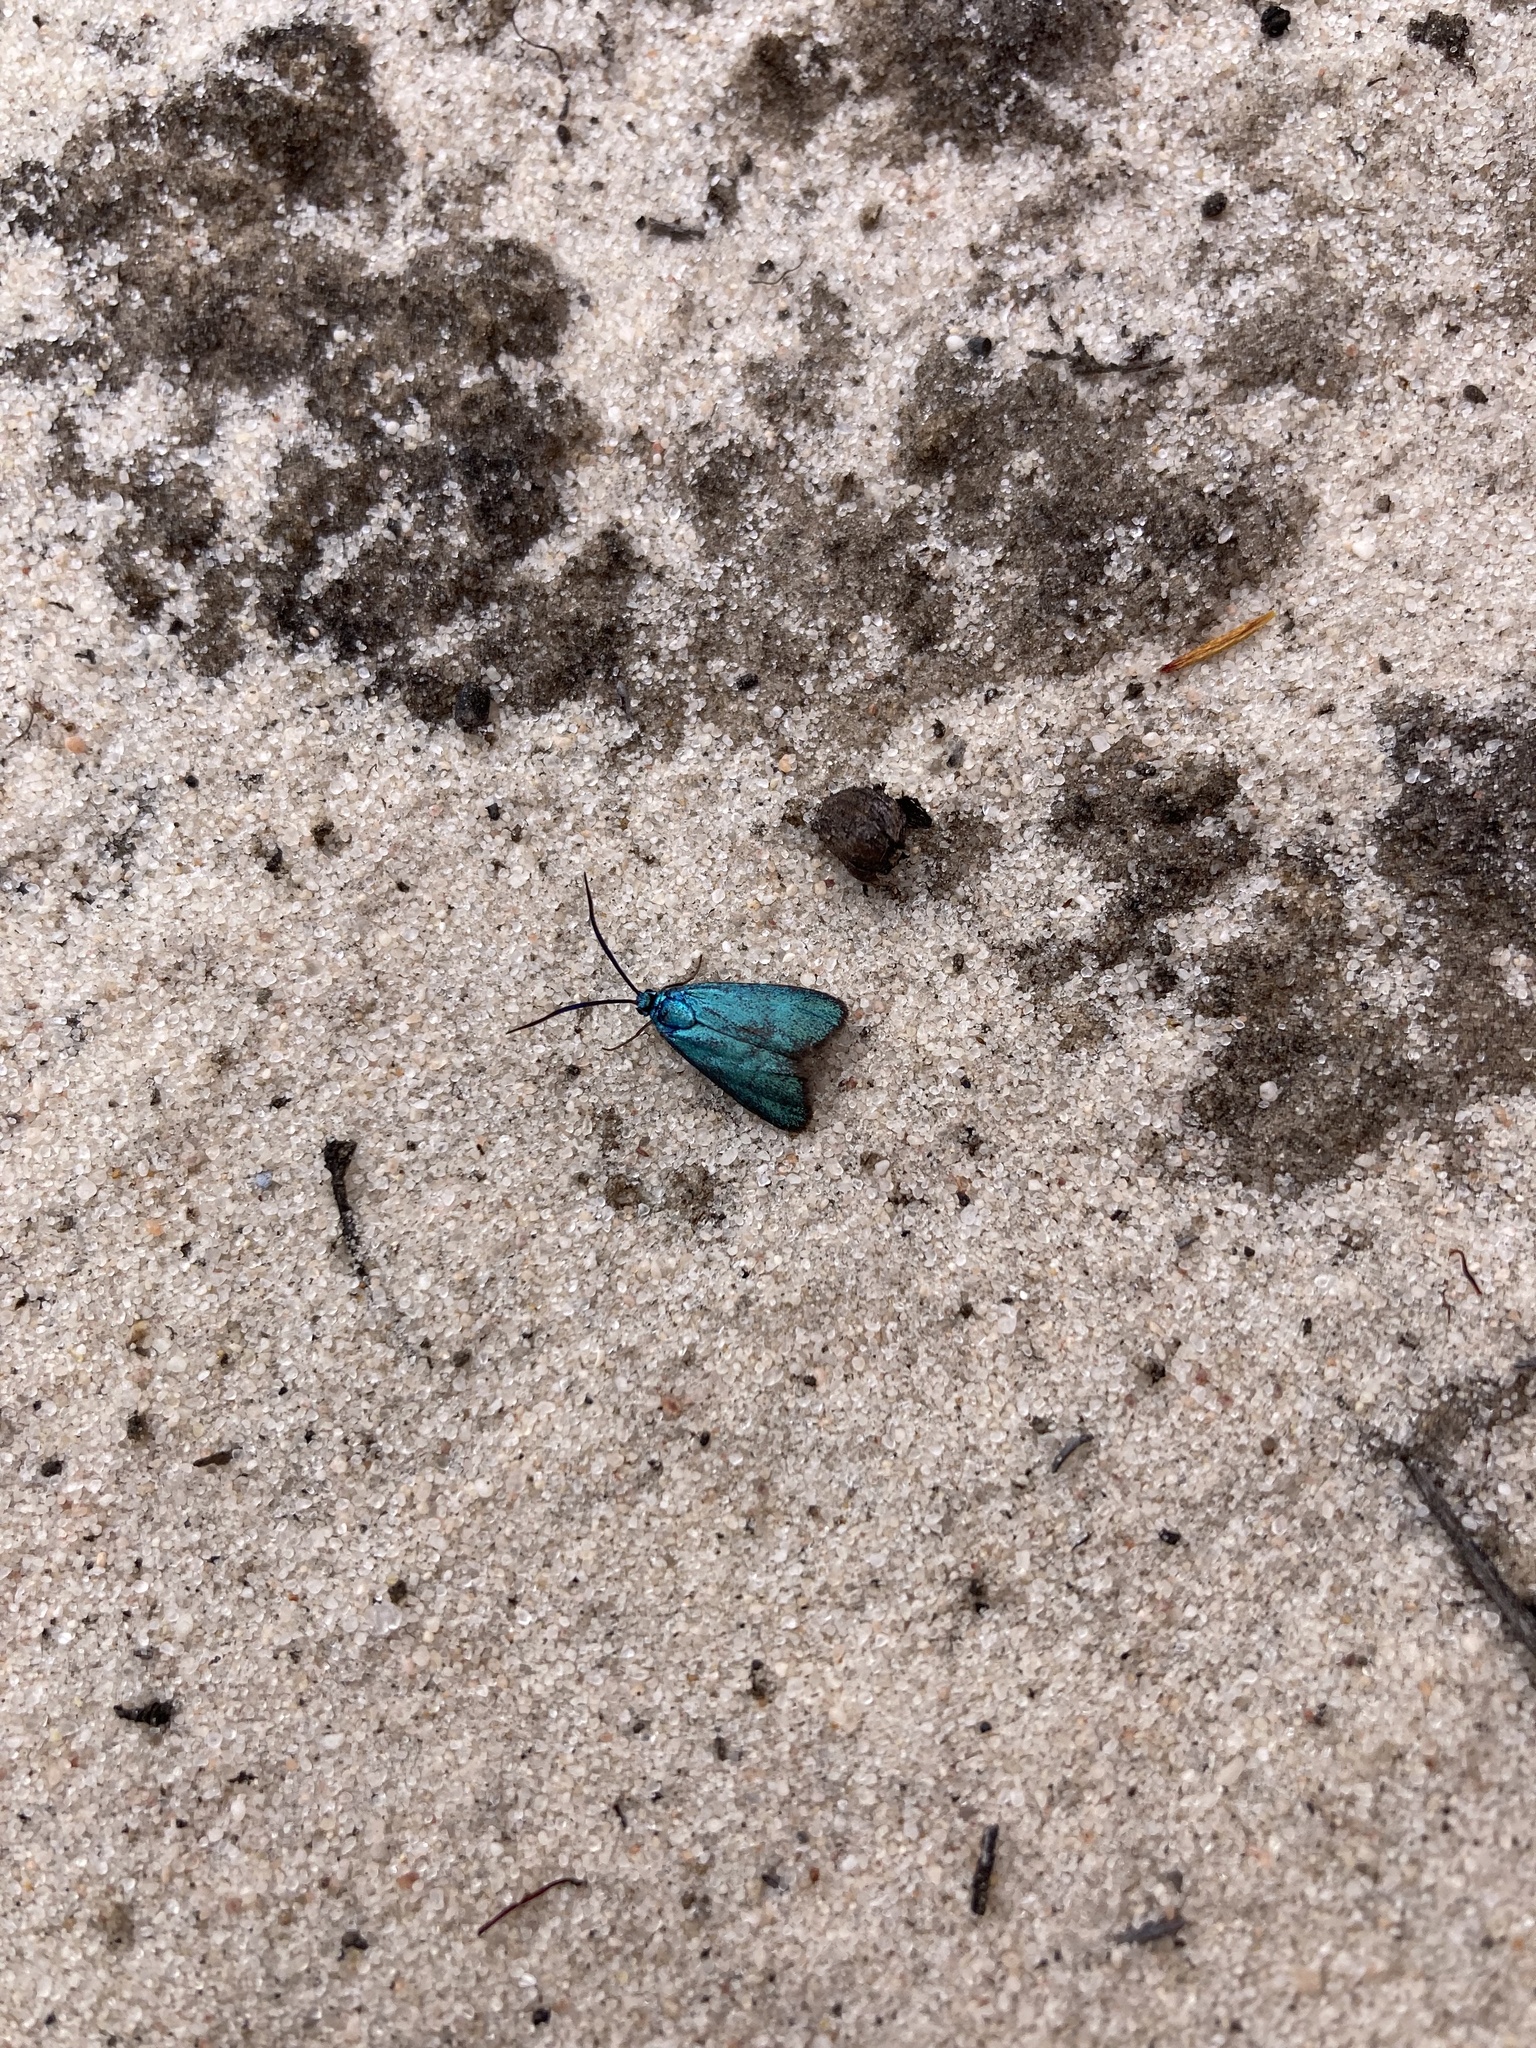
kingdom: Animalia
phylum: Arthropoda
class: Insecta
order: Lepidoptera
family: Zygaenidae
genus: Pollanisus
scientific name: Pollanisus viridipulverulenta
